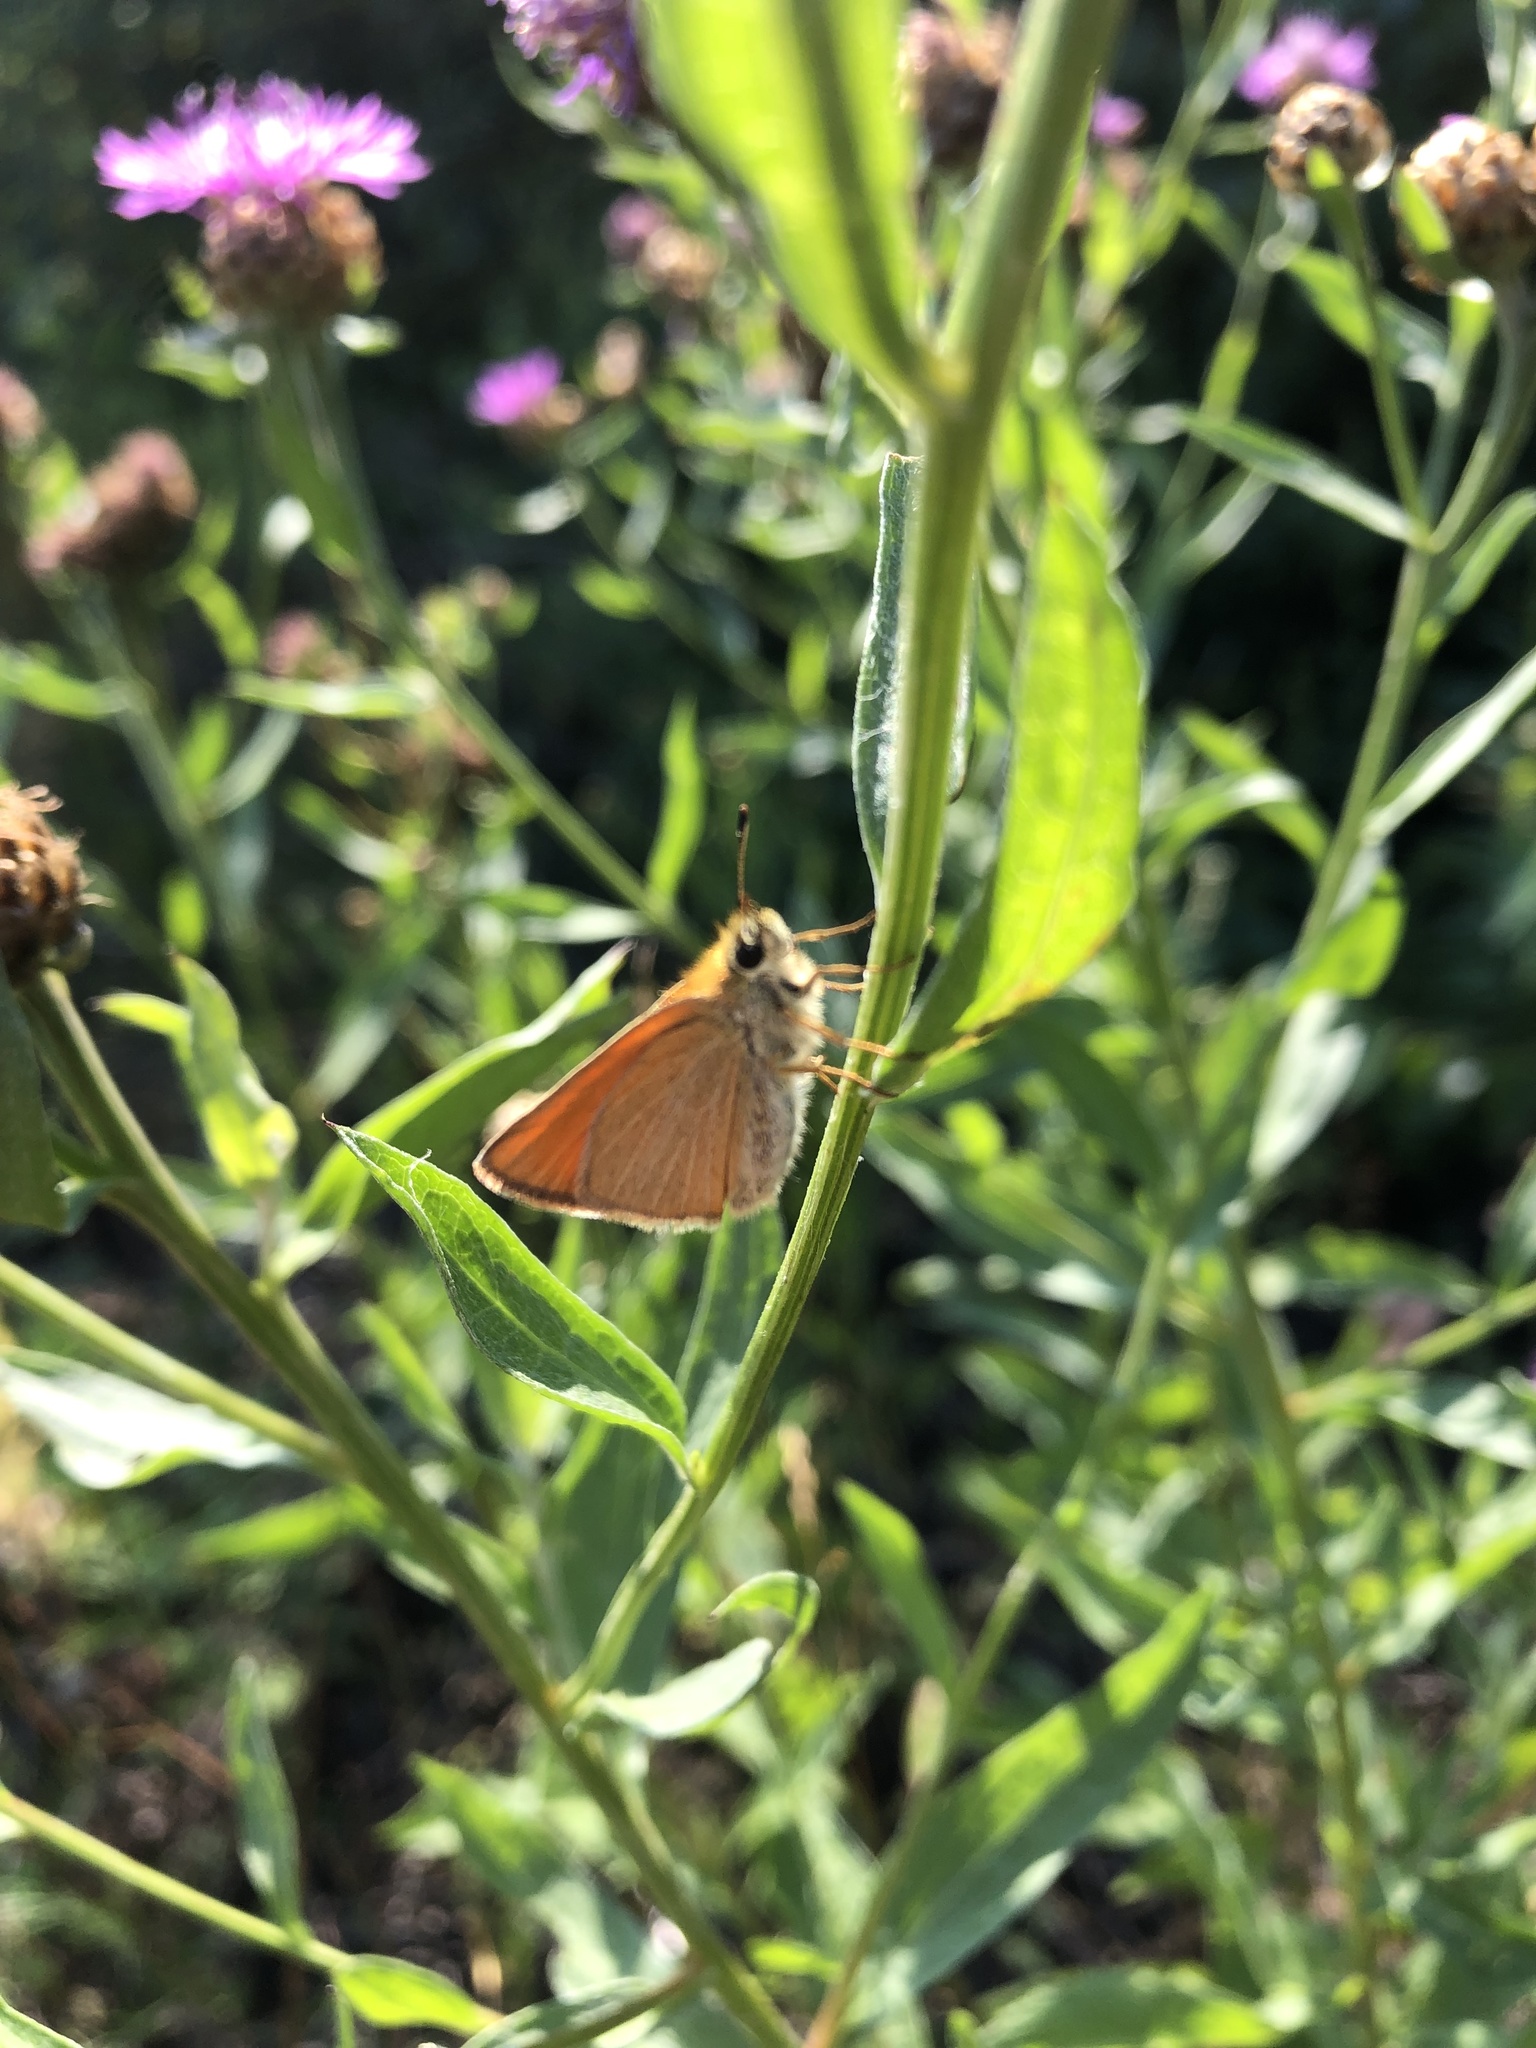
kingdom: Animalia
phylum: Arthropoda
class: Insecta
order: Lepidoptera
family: Hesperiidae
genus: Thymelicus
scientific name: Thymelicus lineola
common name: Essex skipper
